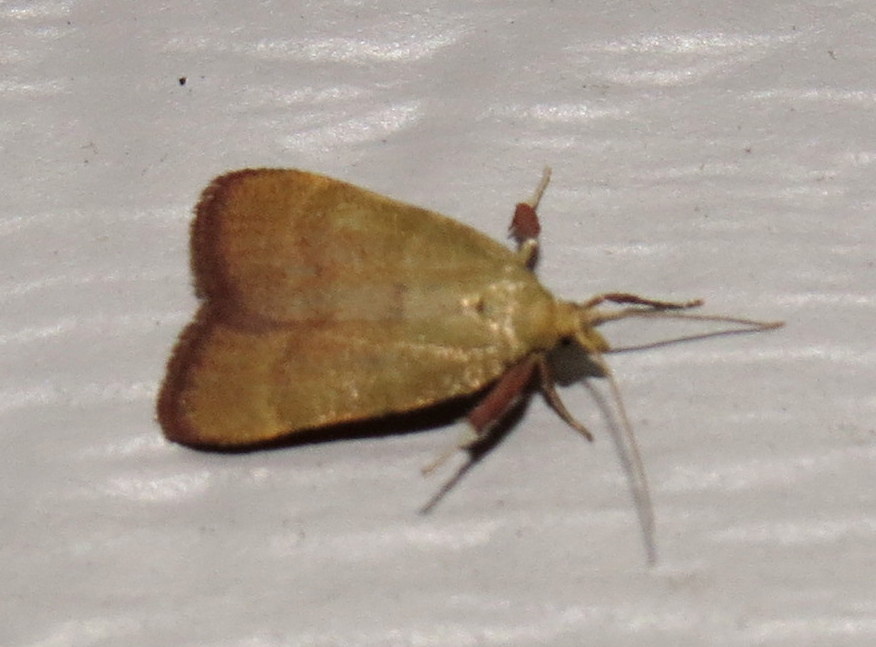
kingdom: Animalia
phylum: Arthropoda
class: Insecta
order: Lepidoptera
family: Pyralidae
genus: Condylolomia
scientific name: Condylolomia participialis
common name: Drab condylolomia moth
